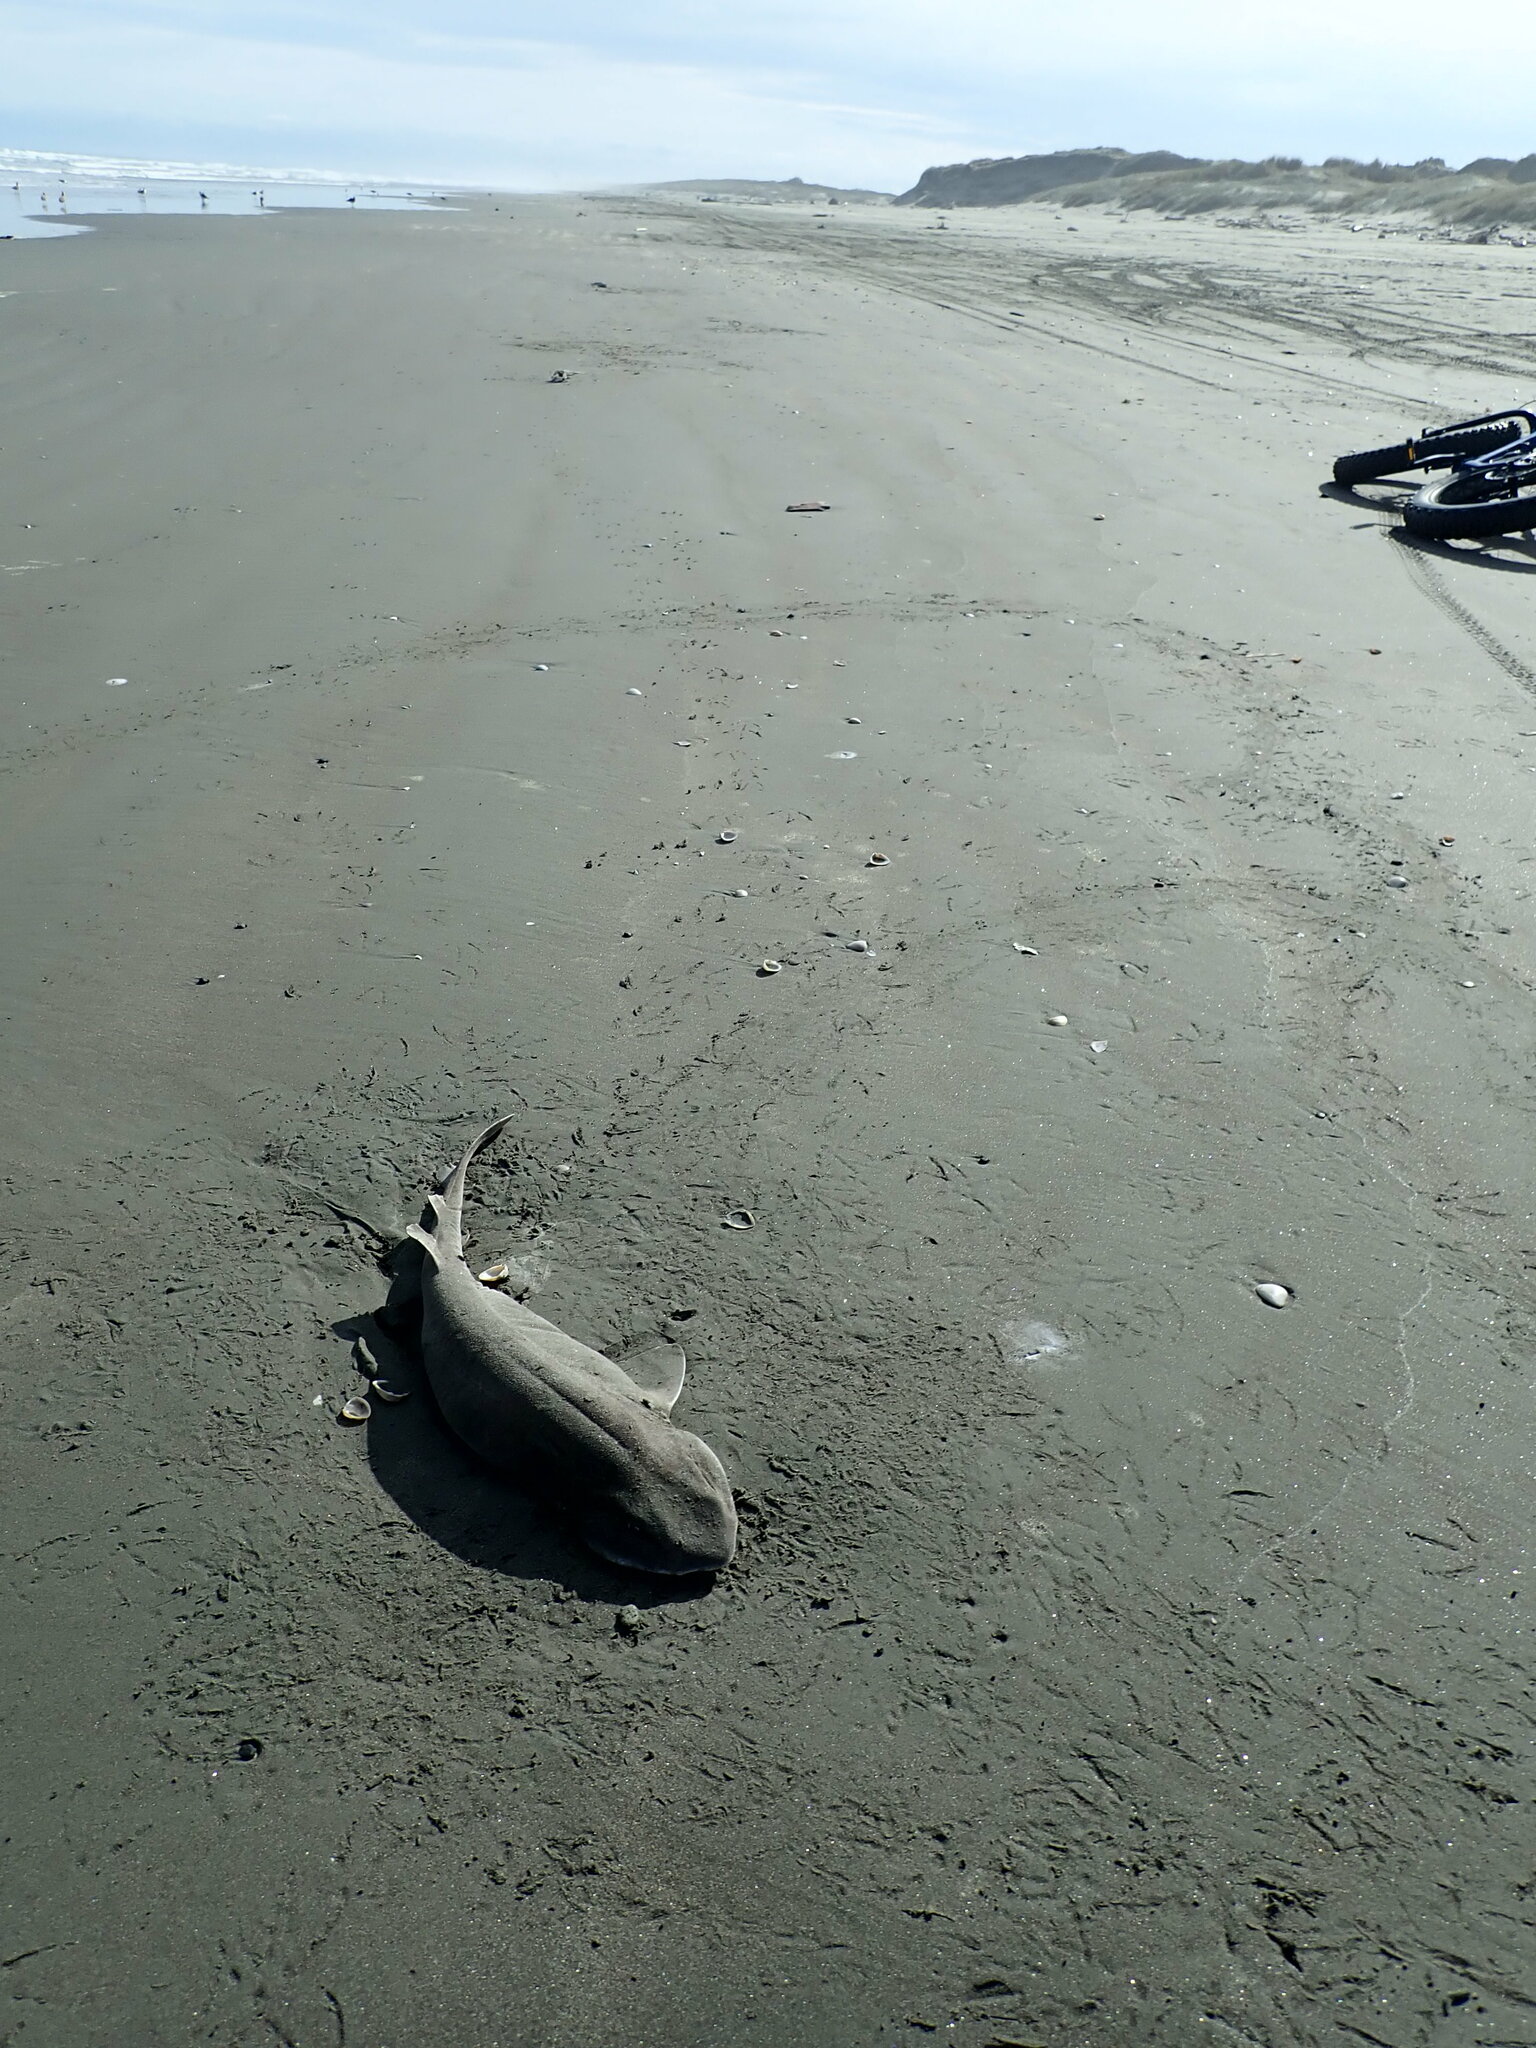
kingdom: Animalia
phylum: Chordata
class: Elasmobranchii
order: Carcharhiniformes
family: Scyliorhinidae
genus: Cephaloscyllium
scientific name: Cephaloscyllium isabellum
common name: Carpet shark
